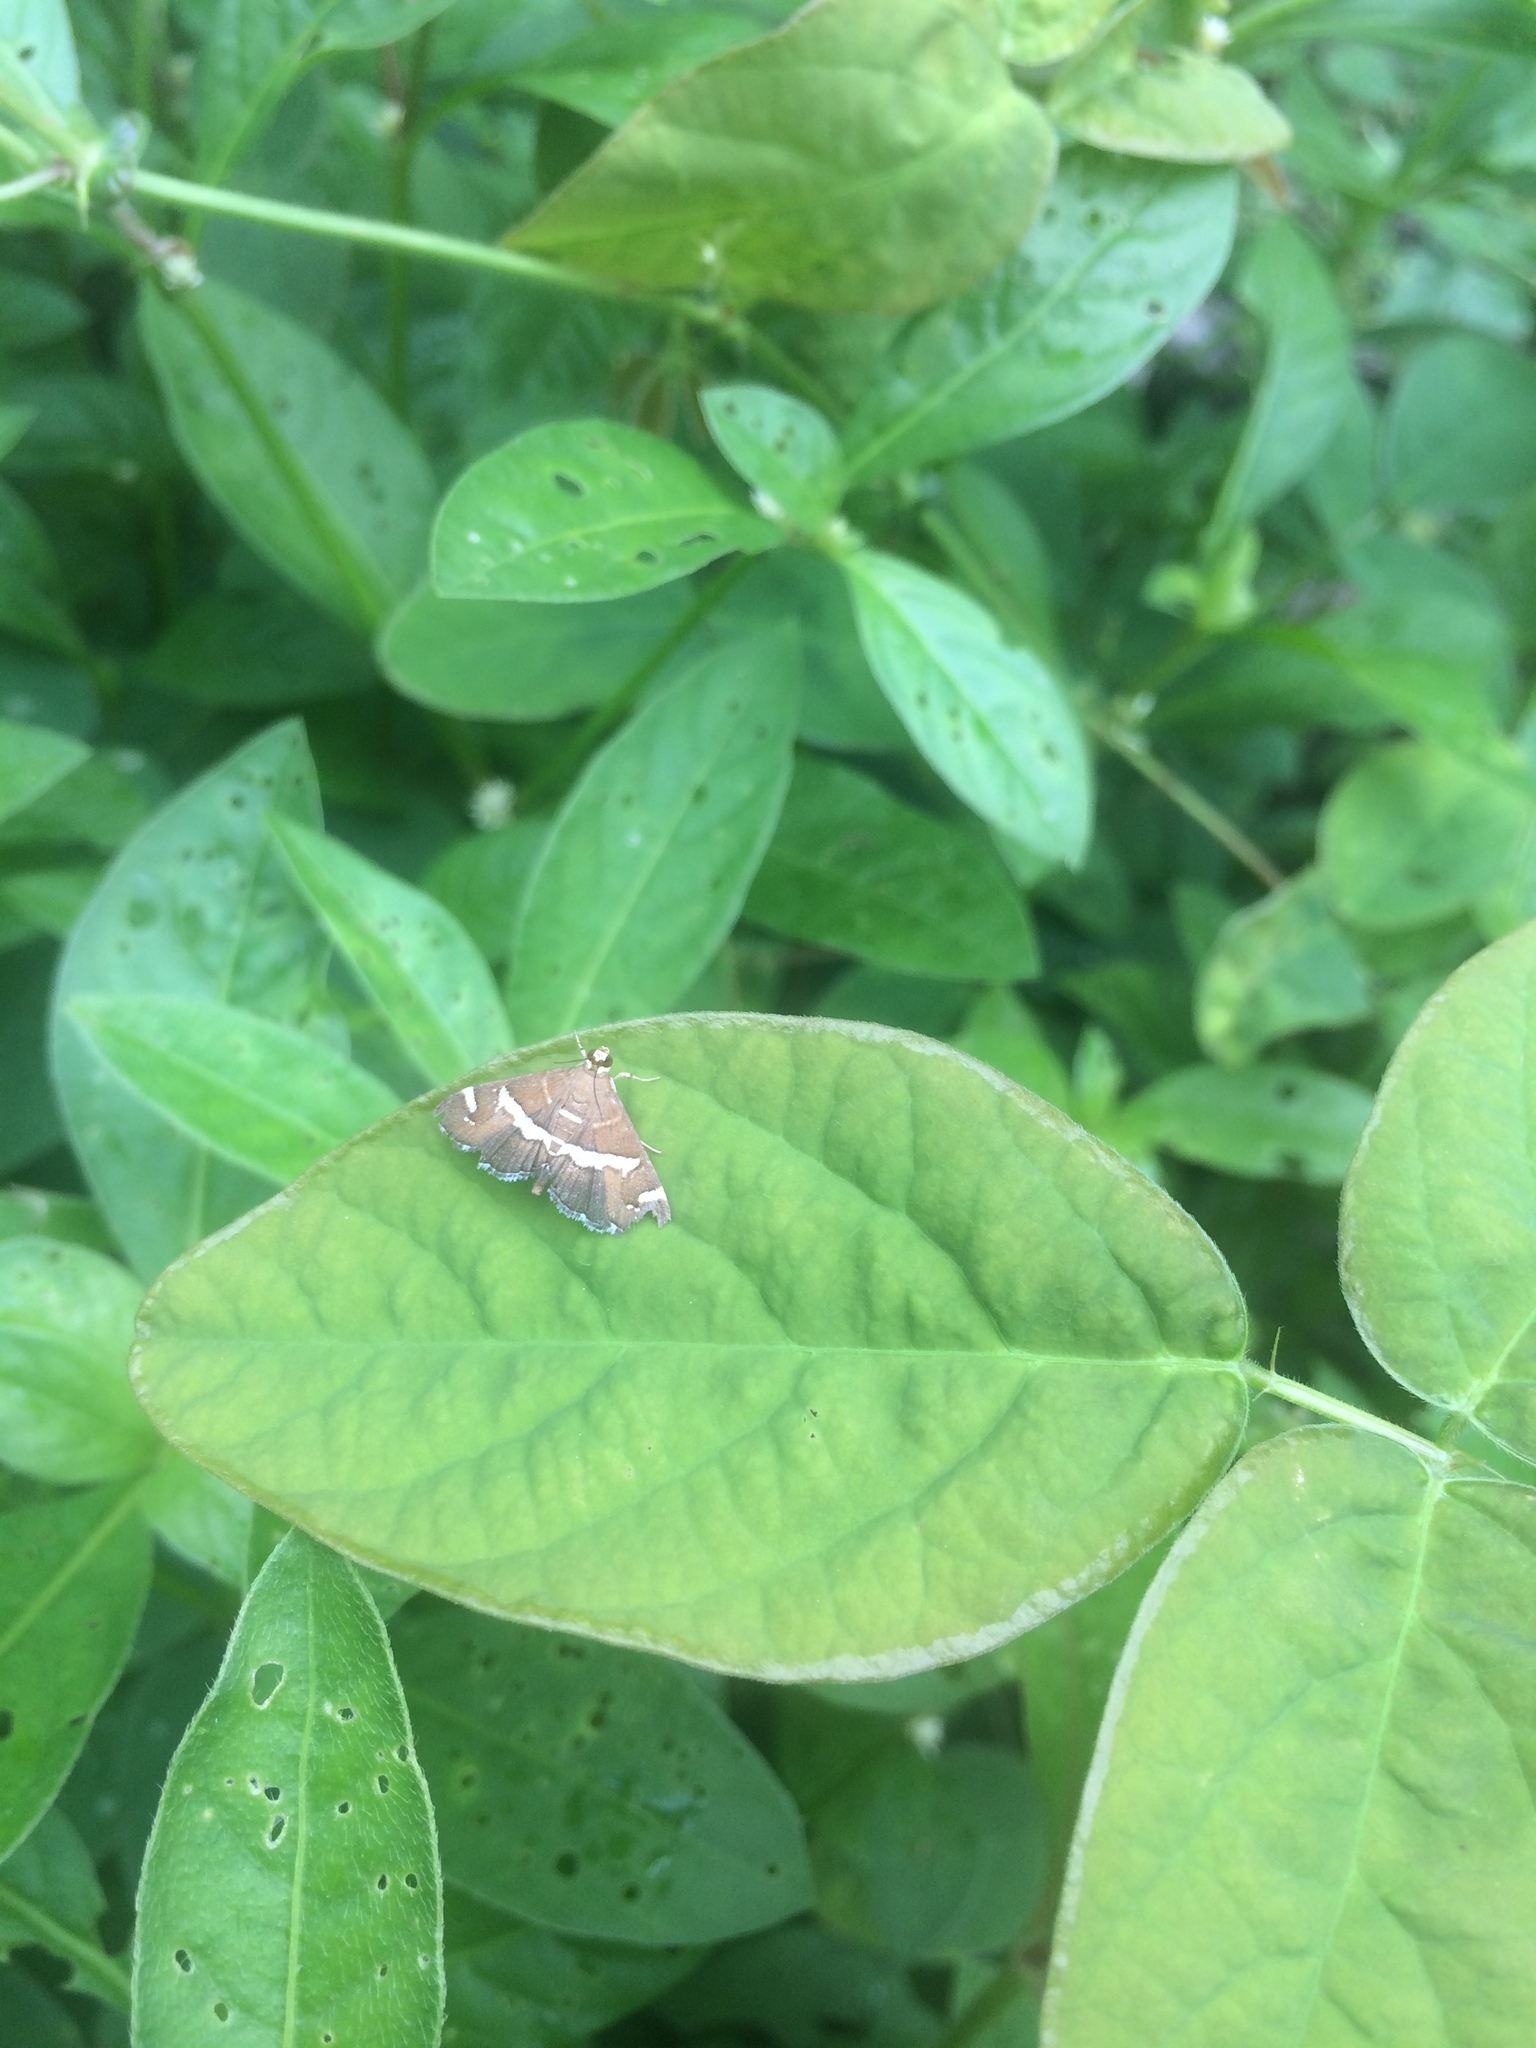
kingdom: Animalia
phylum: Arthropoda
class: Insecta
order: Lepidoptera
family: Crambidae
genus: Spoladea
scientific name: Spoladea recurvalis
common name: Beet webworm moth
